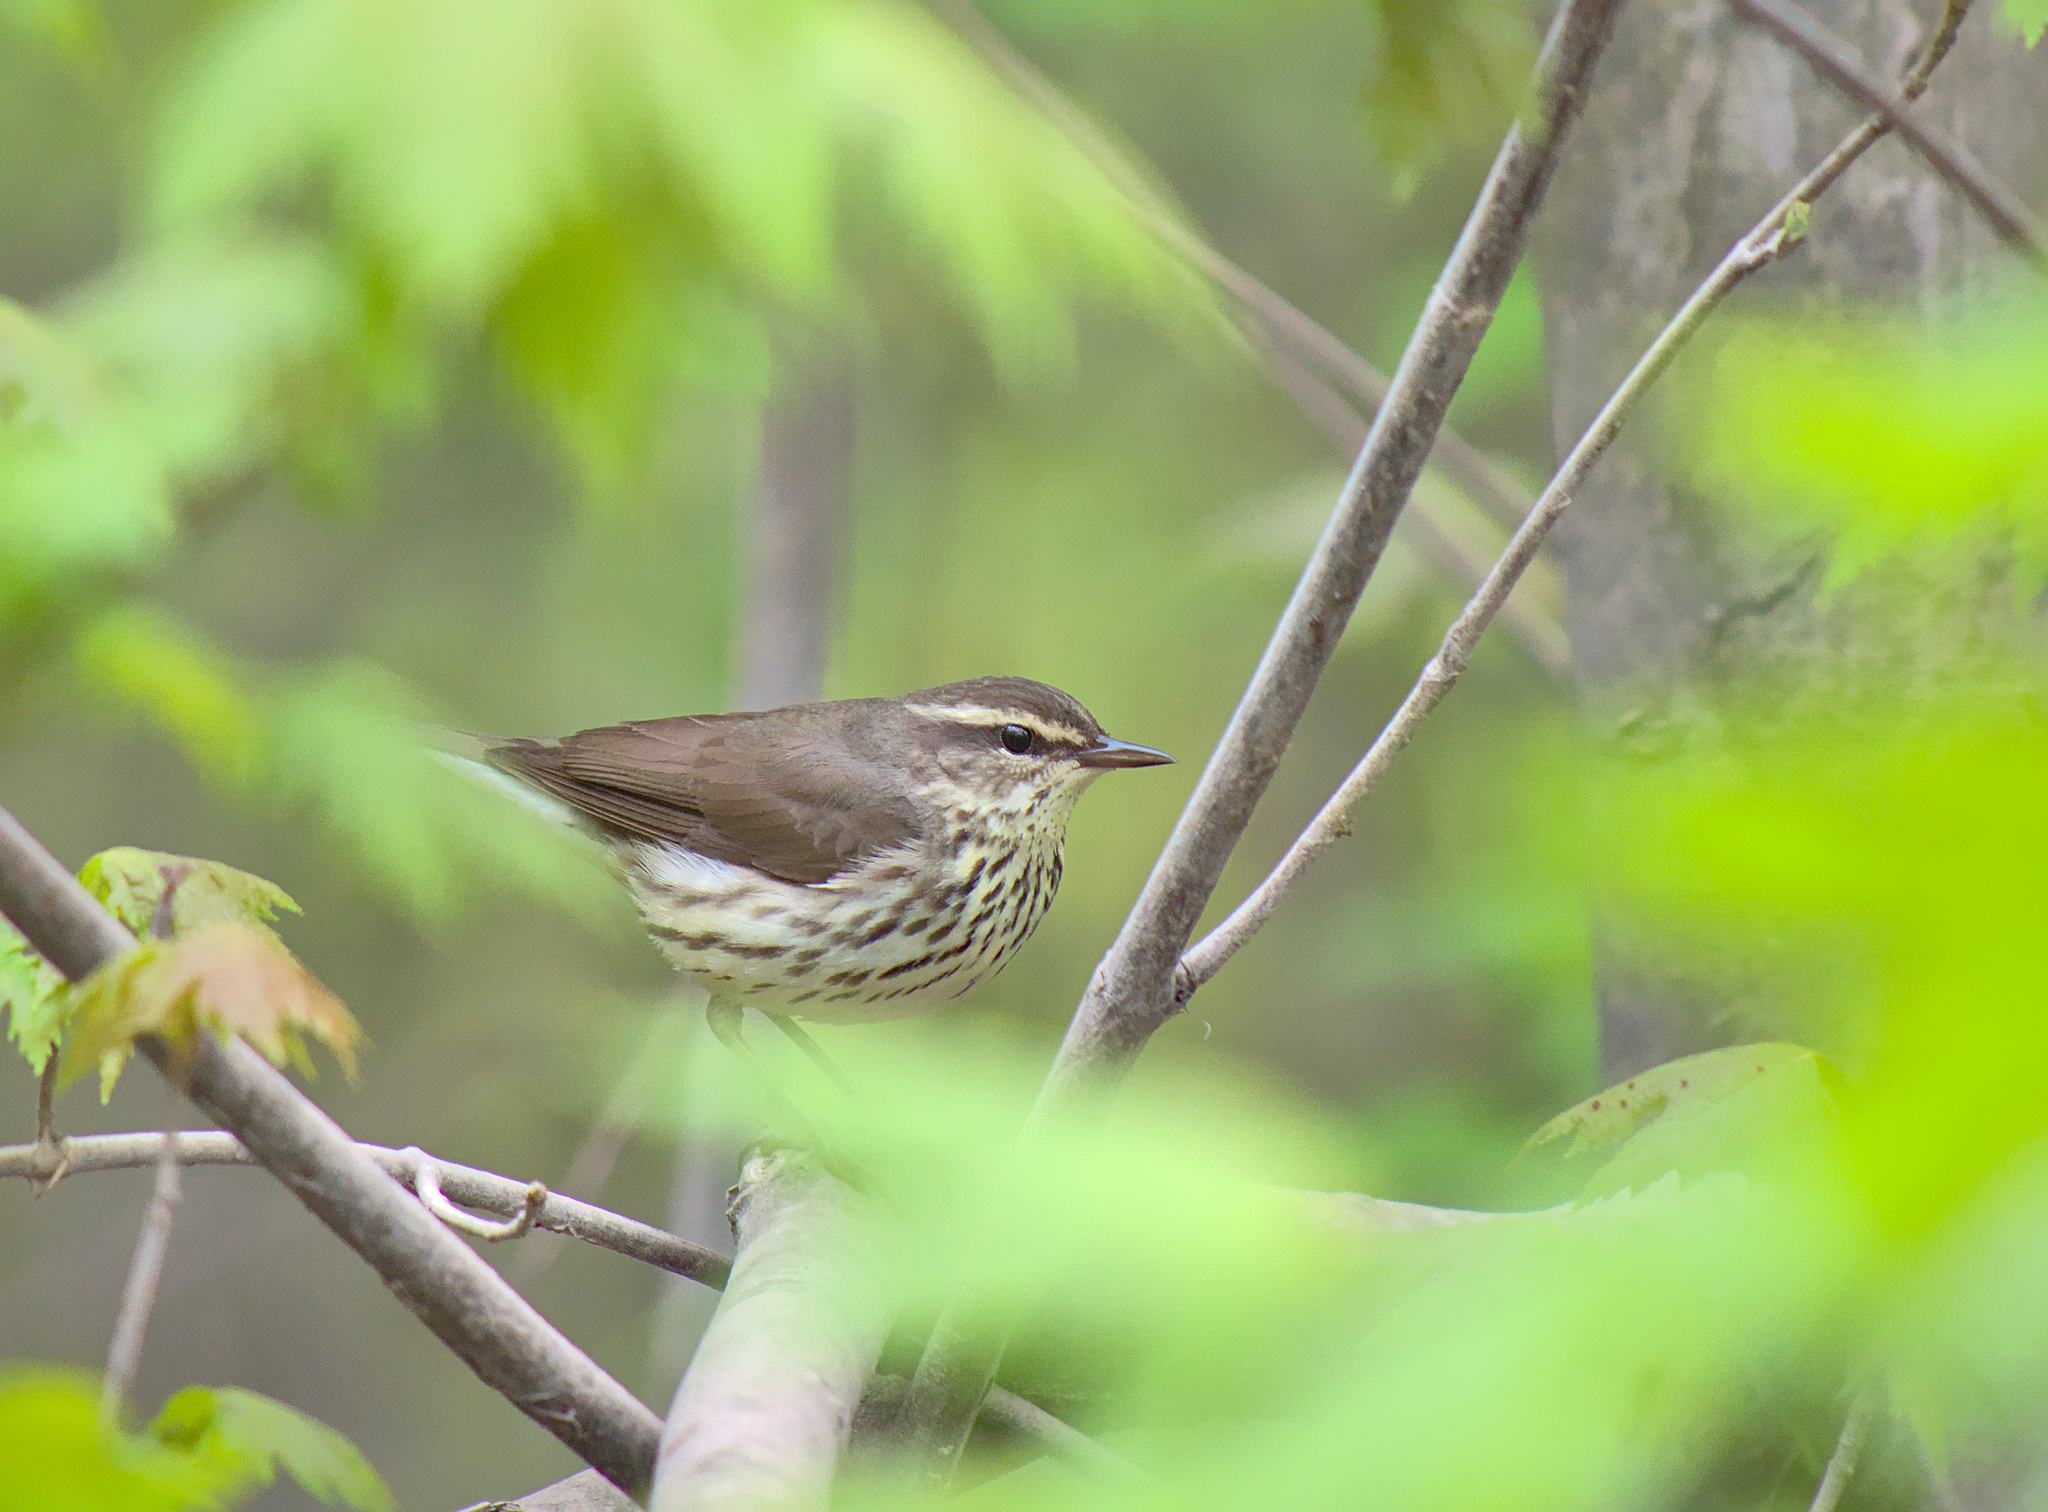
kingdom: Animalia
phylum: Chordata
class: Aves
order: Passeriformes
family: Parulidae
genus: Parkesia
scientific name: Parkesia noveboracensis
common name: Northern waterthrush
